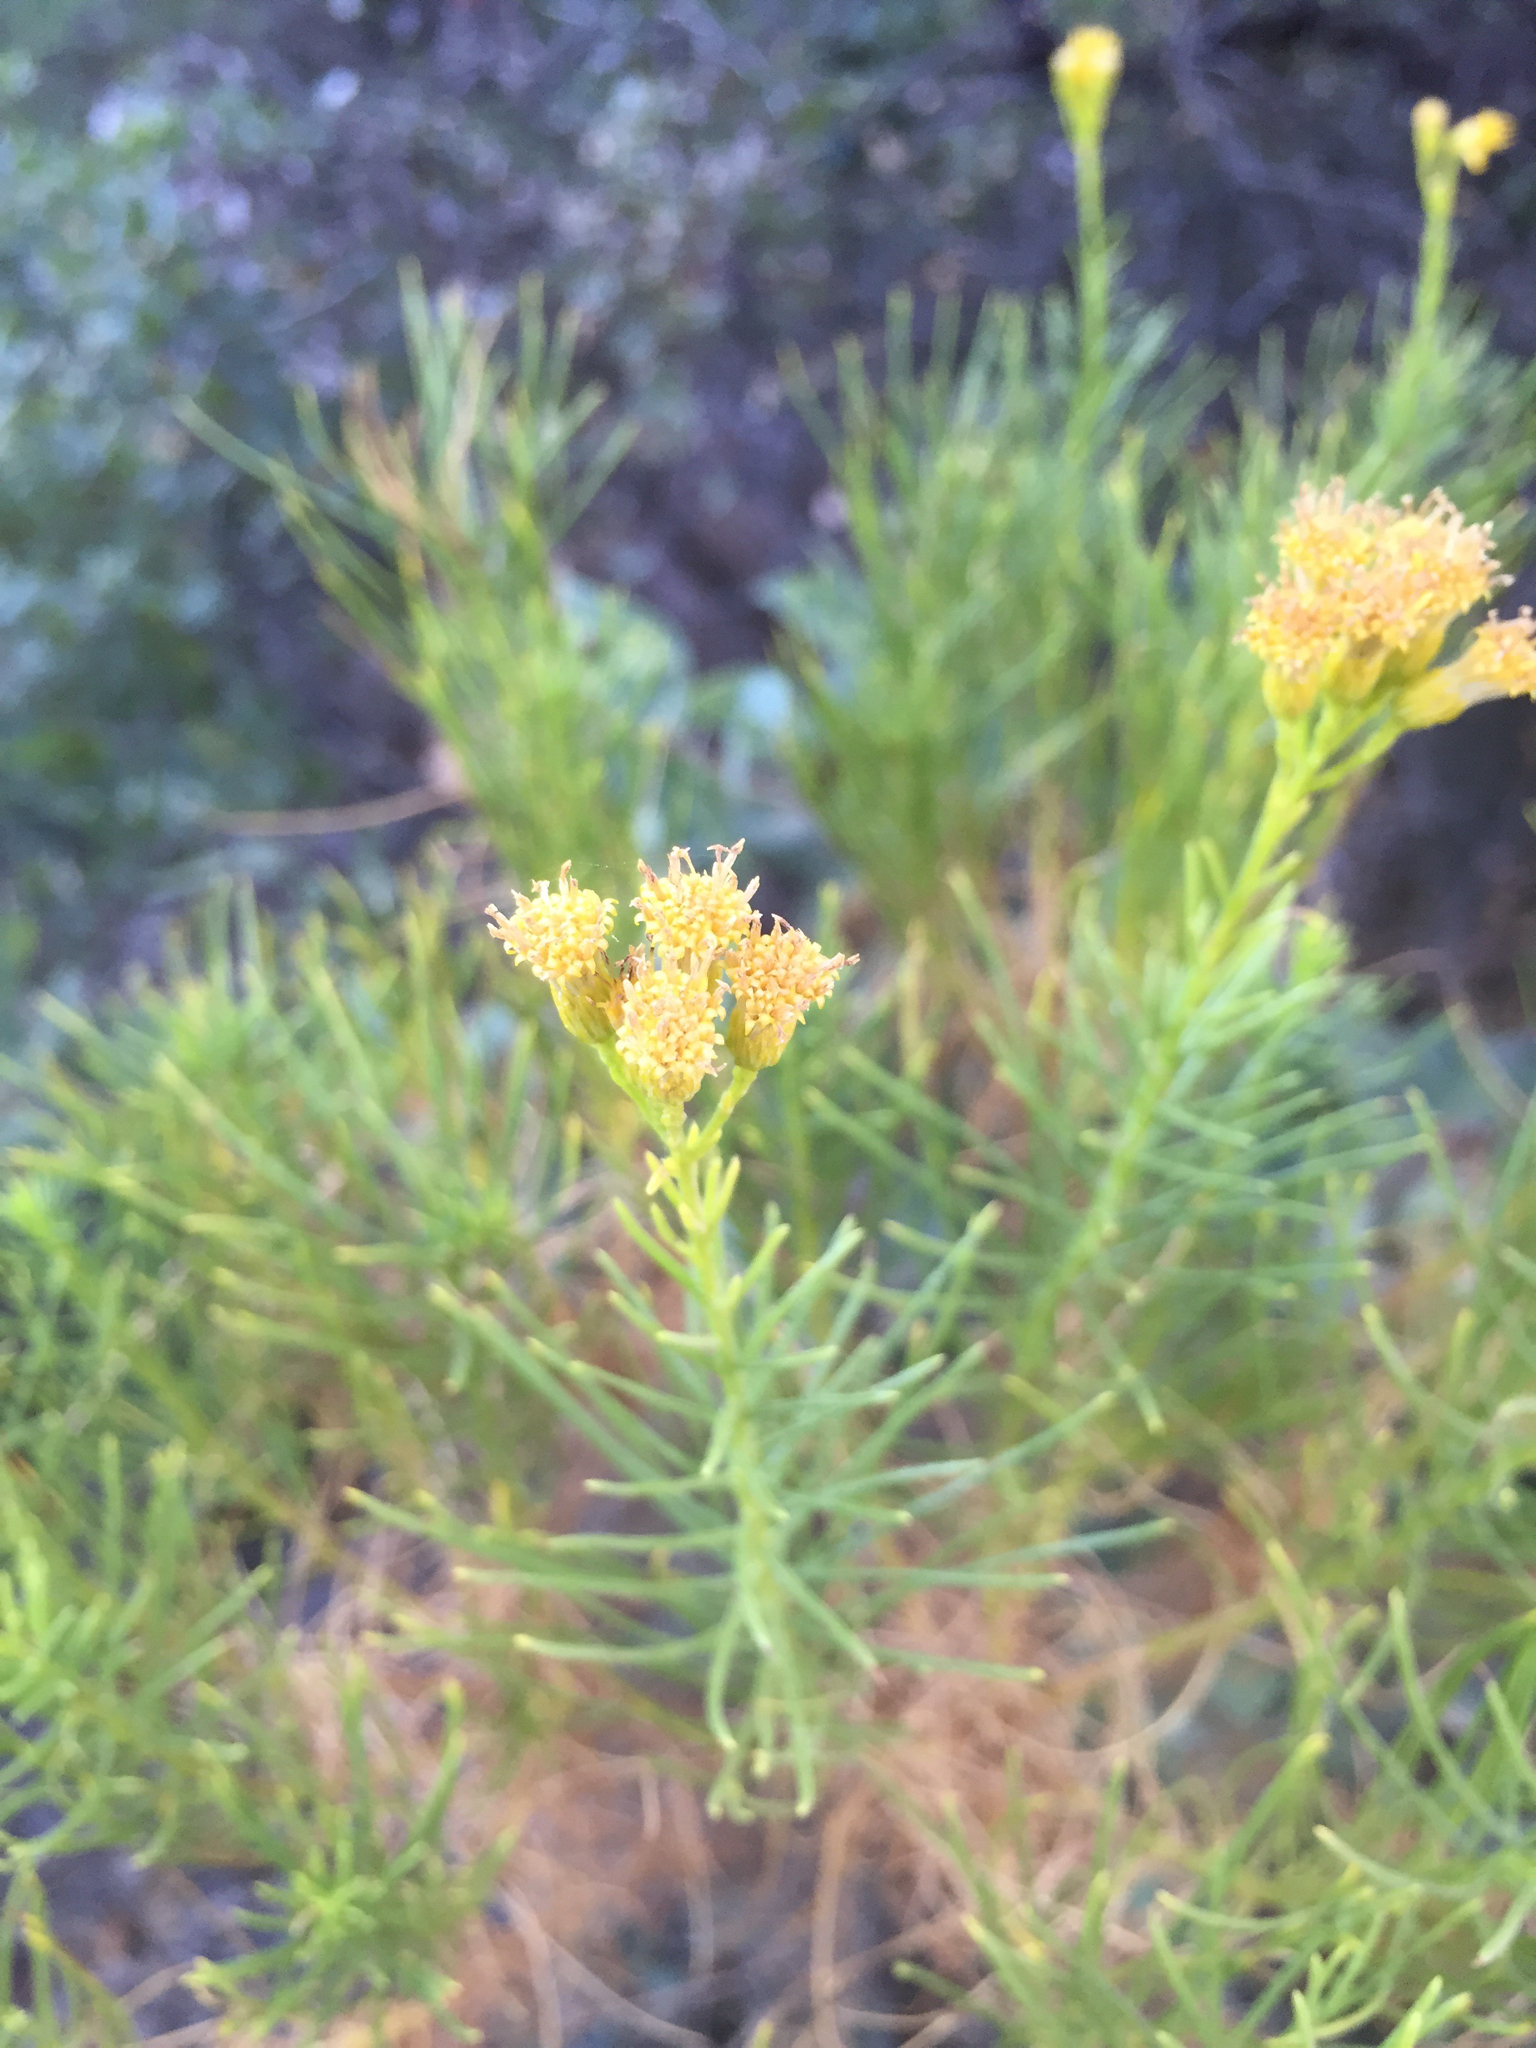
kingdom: Plantae
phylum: Tracheophyta
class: Magnoliopsida
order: Asterales
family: Asteraceae
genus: Ericameria
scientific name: Ericameria arborescens
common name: Goldenfleece
